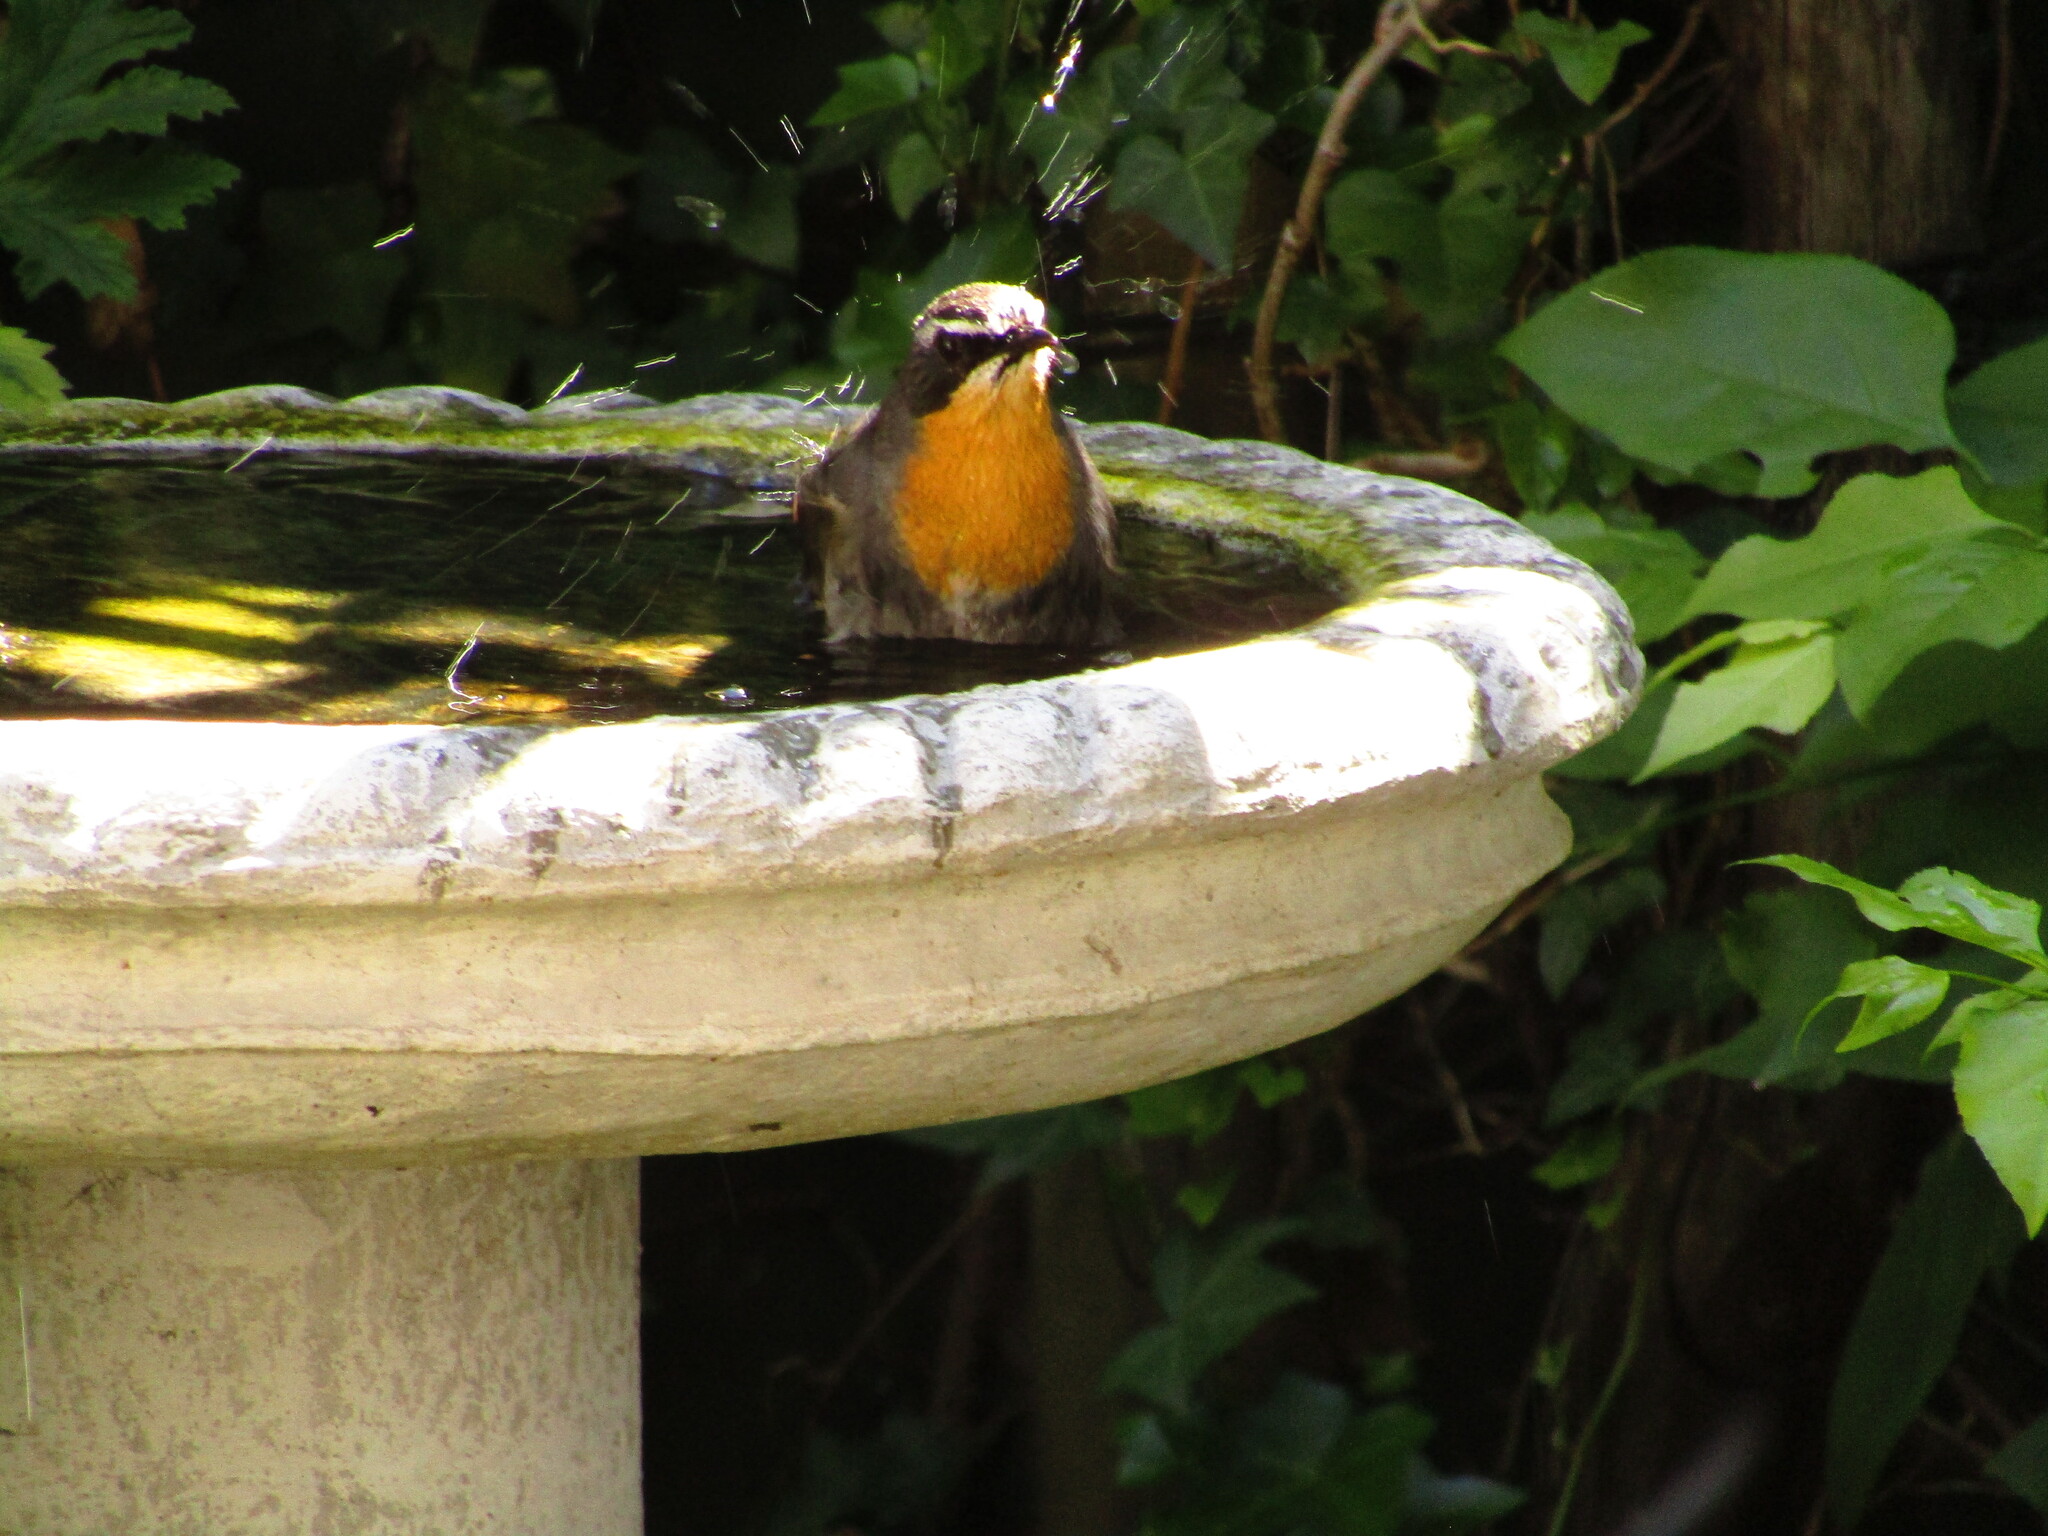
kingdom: Animalia
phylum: Chordata
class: Aves
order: Passeriformes
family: Muscicapidae
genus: Cossypha
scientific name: Cossypha caffra
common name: Cape robin-chat
